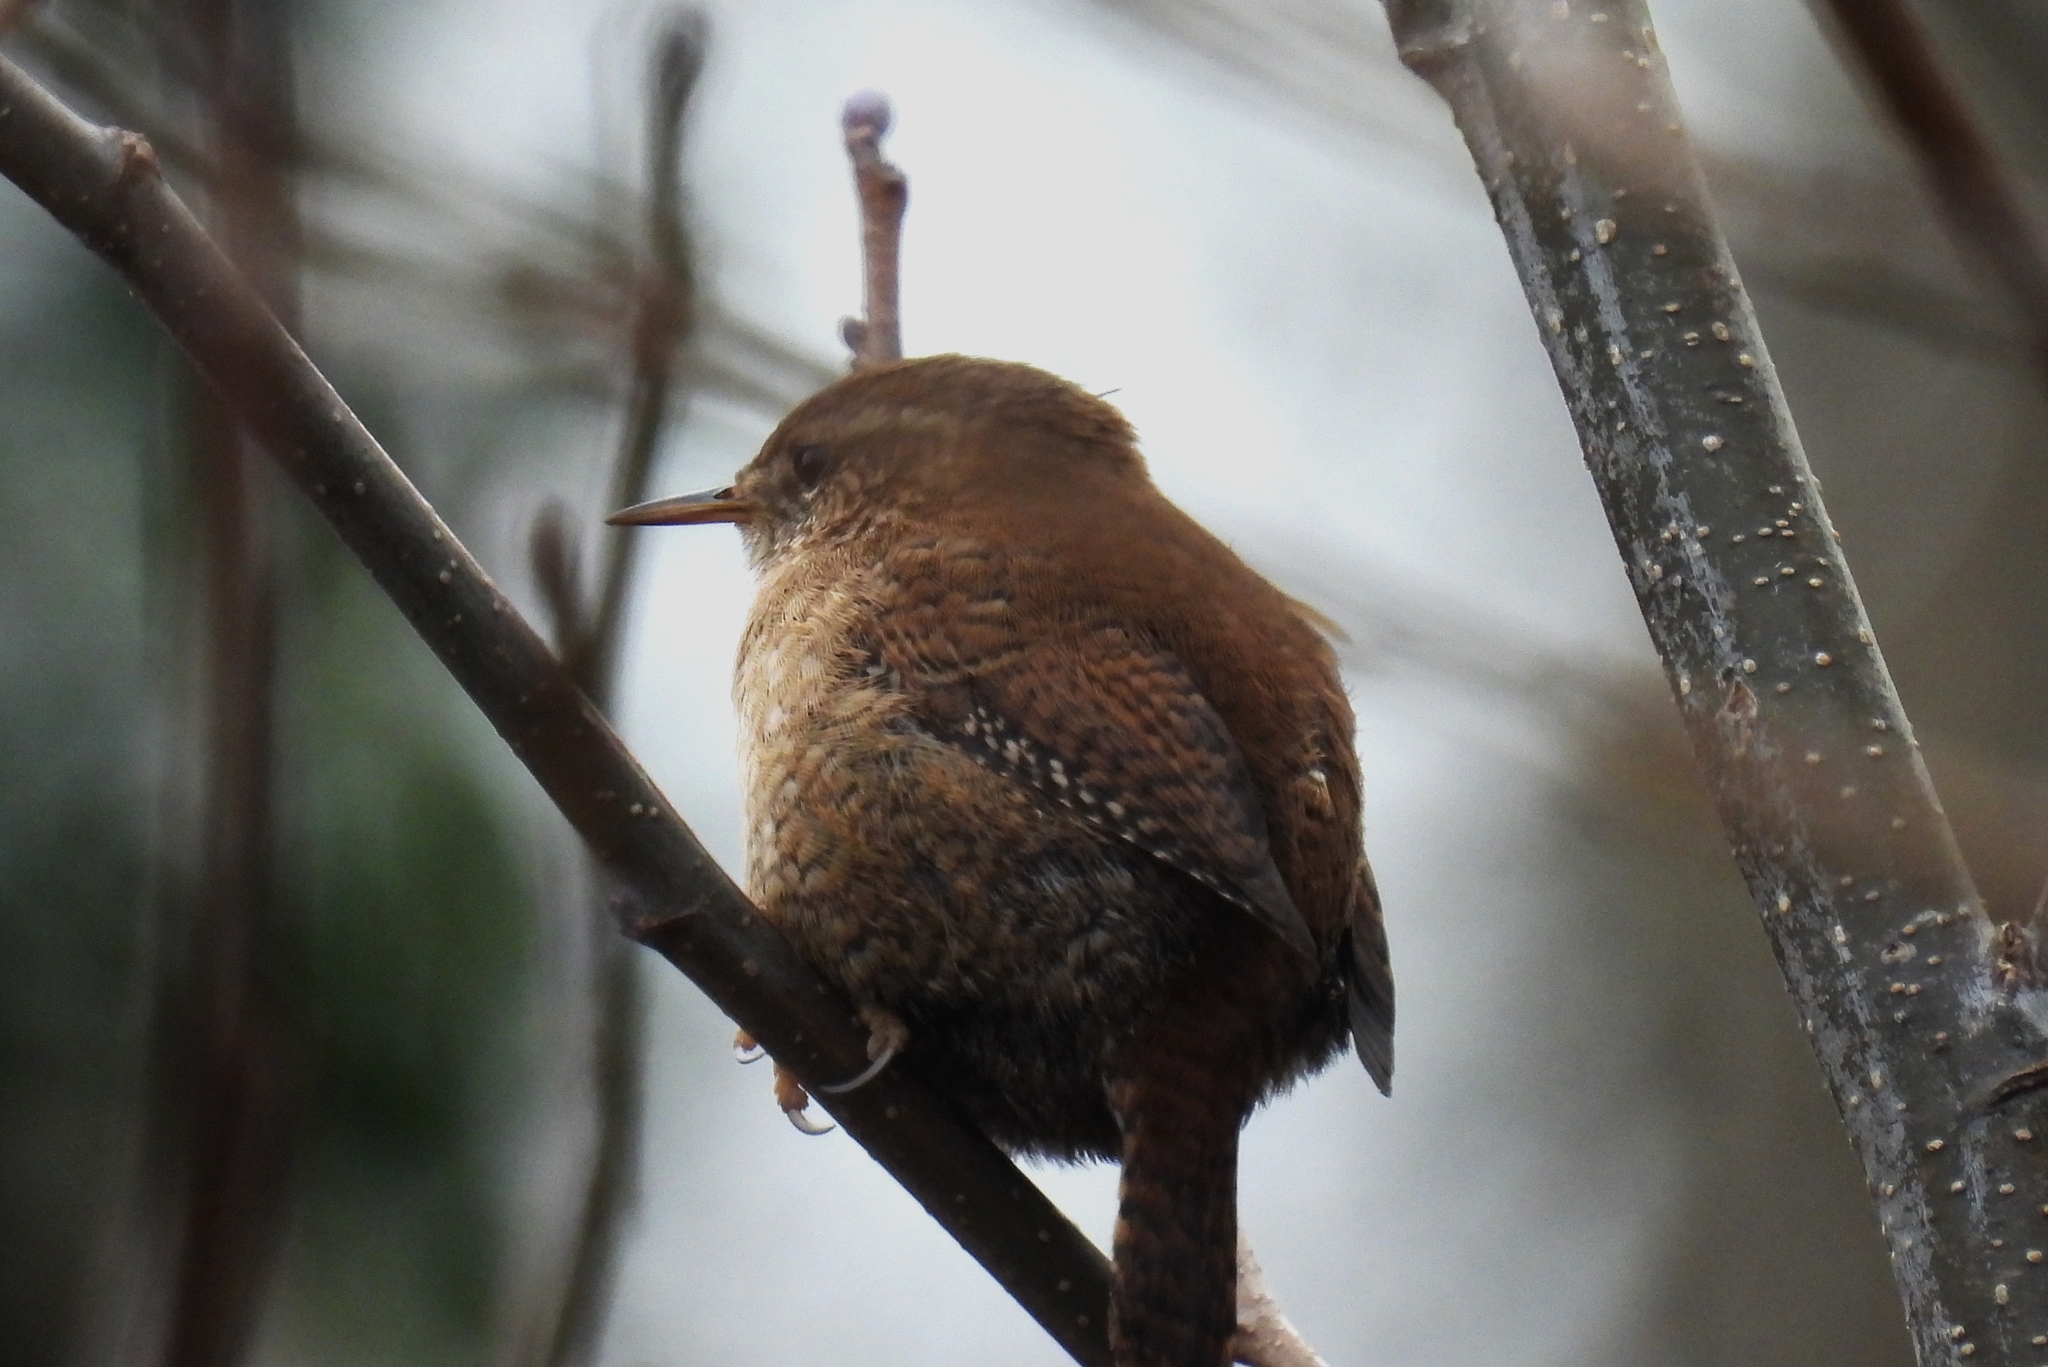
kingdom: Animalia
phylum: Chordata
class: Aves
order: Passeriformes
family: Troglodytidae
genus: Troglodytes
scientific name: Troglodytes troglodytes
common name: Eurasian wren
